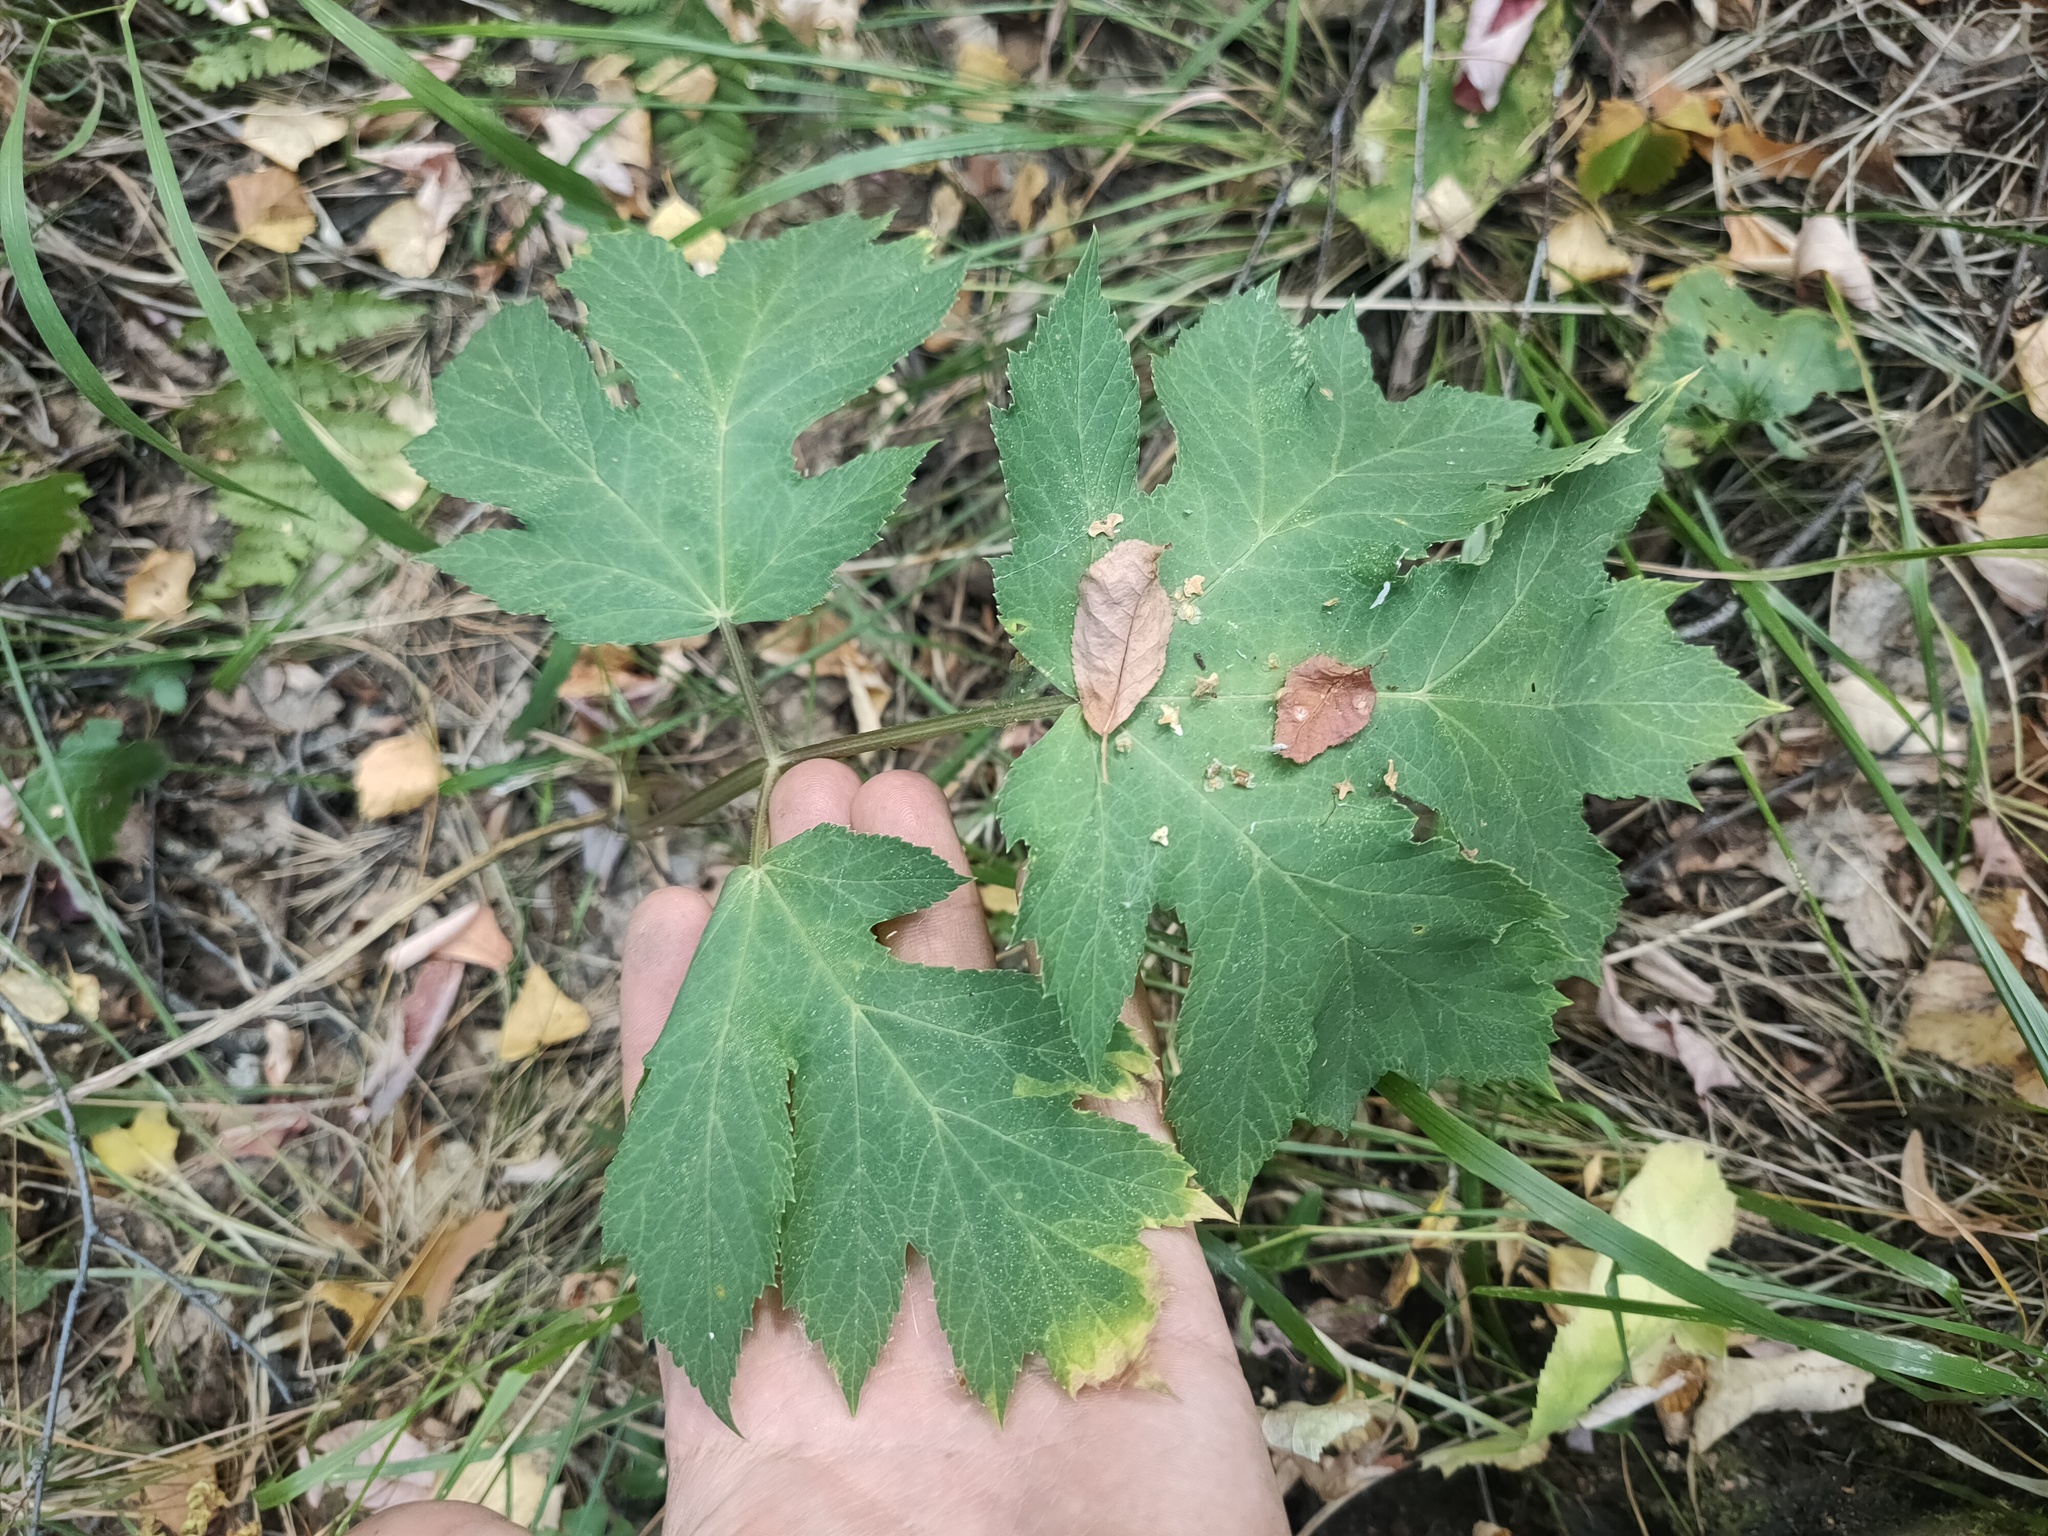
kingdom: Plantae
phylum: Tracheophyta
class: Magnoliopsida
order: Apiales
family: Apiaceae
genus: Heracleum
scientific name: Heracleum sphondylium
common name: Hogweed
